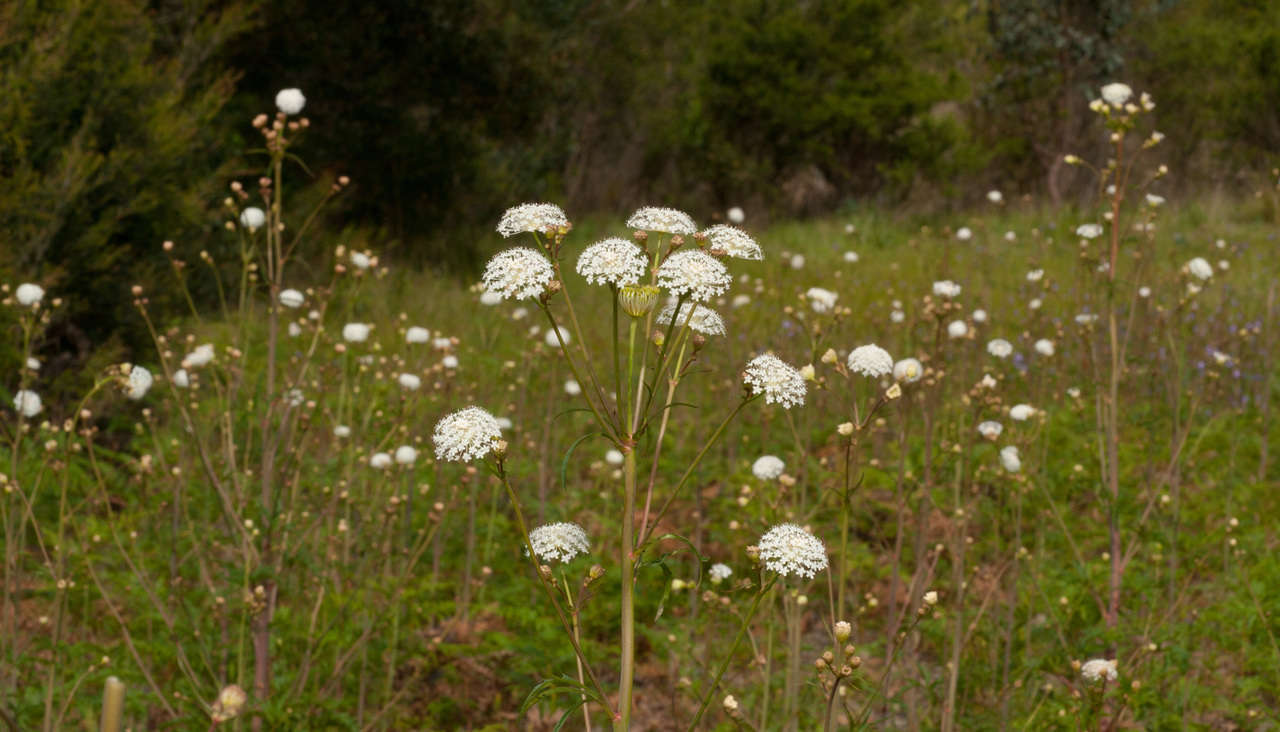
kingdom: Plantae
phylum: Tracheophyta
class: Magnoliopsida
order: Apiales
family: Araliaceae
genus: Trachymene
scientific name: Trachymene composita
